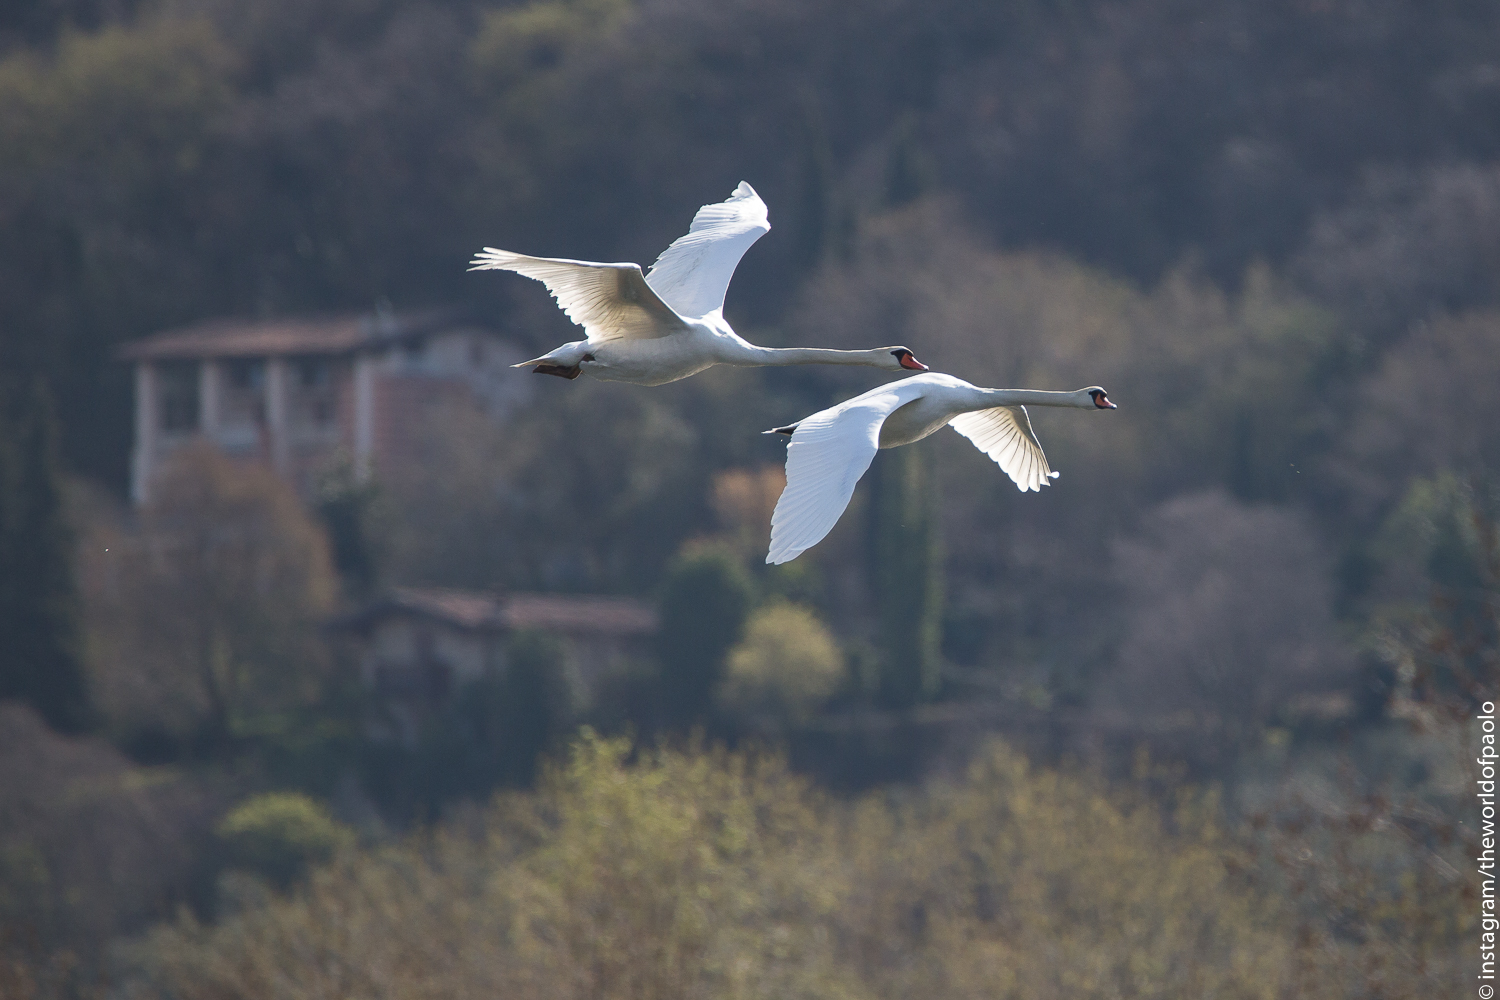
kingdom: Animalia
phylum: Chordata
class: Aves
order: Anseriformes
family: Anatidae
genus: Cygnus
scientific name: Cygnus olor
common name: Mute swan
